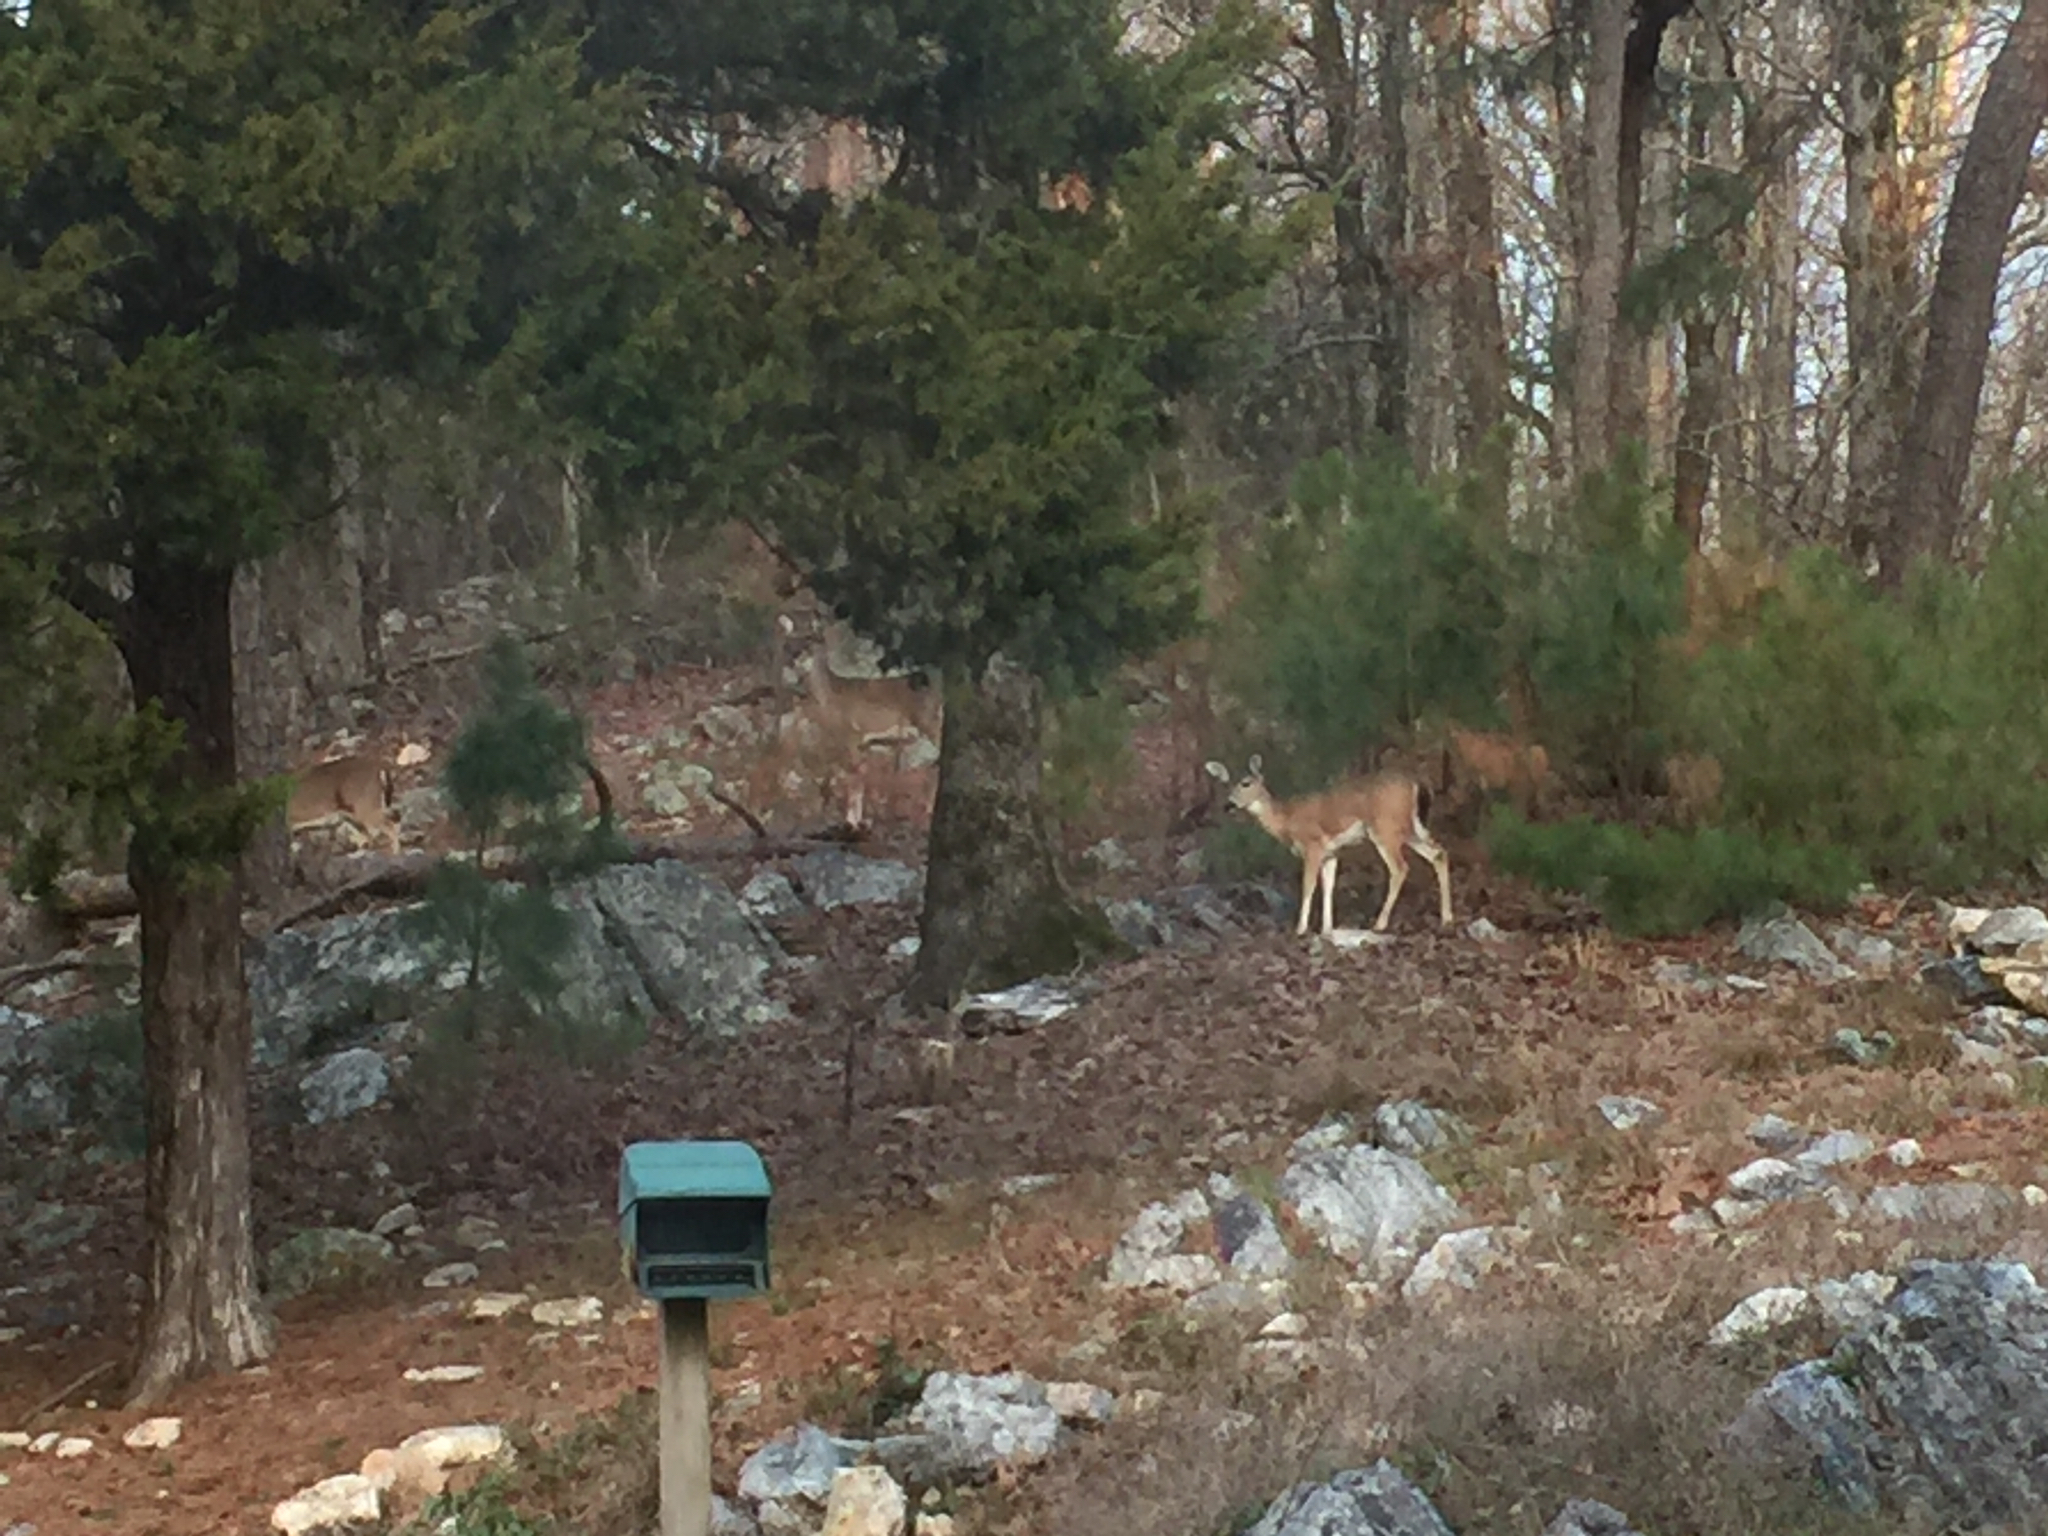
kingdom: Animalia
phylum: Chordata
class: Mammalia
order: Artiodactyla
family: Cervidae
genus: Odocoileus
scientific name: Odocoileus virginianus
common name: White-tailed deer
